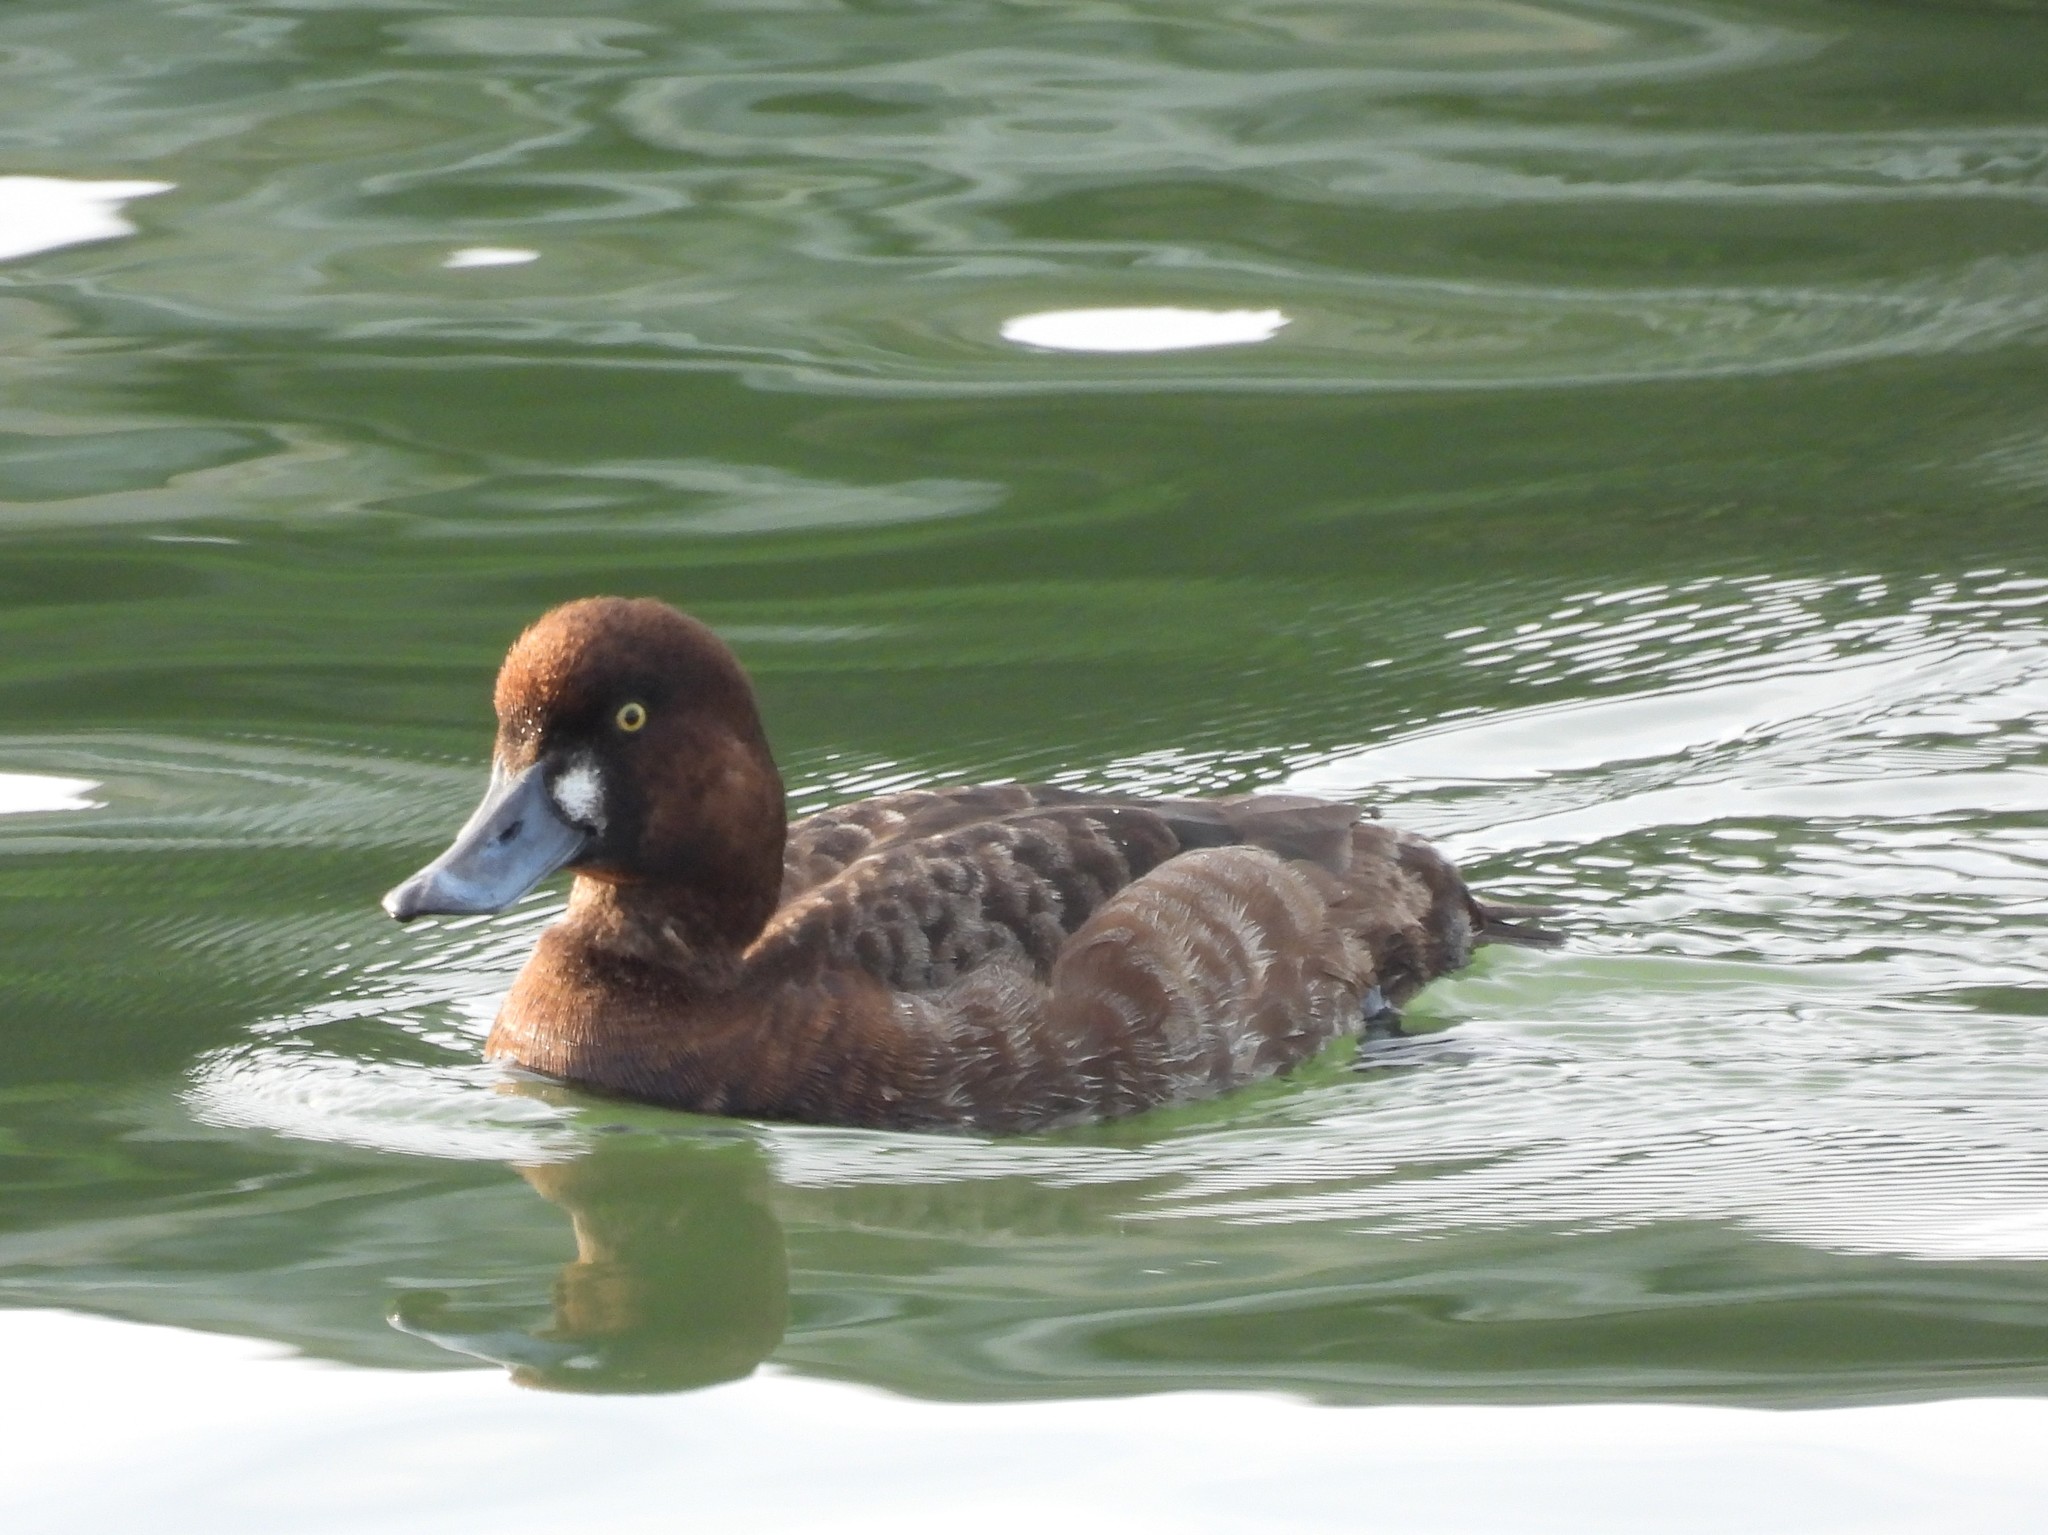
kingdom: Animalia
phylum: Chordata
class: Aves
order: Anseriformes
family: Anatidae
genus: Aythya
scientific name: Aythya marila
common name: Greater scaup
